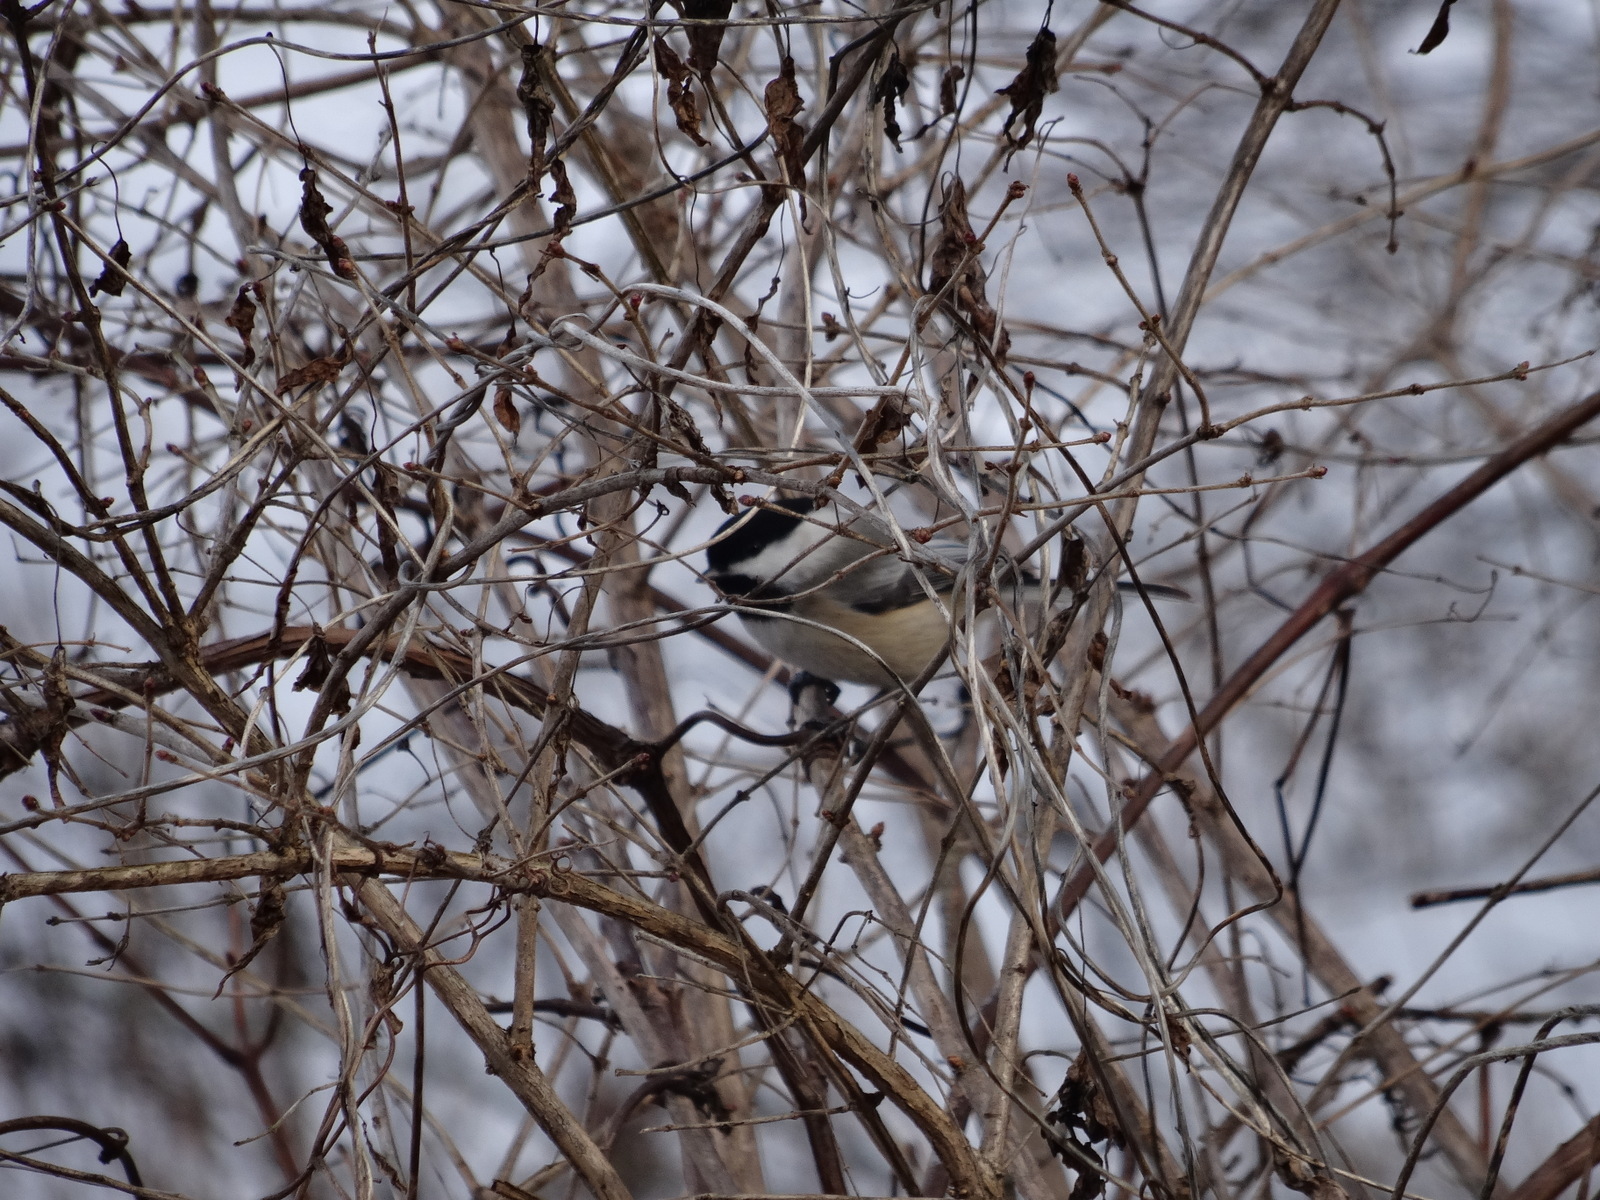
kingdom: Animalia
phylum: Chordata
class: Aves
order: Passeriformes
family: Paridae
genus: Poecile
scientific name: Poecile atricapillus
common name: Black-capped chickadee
